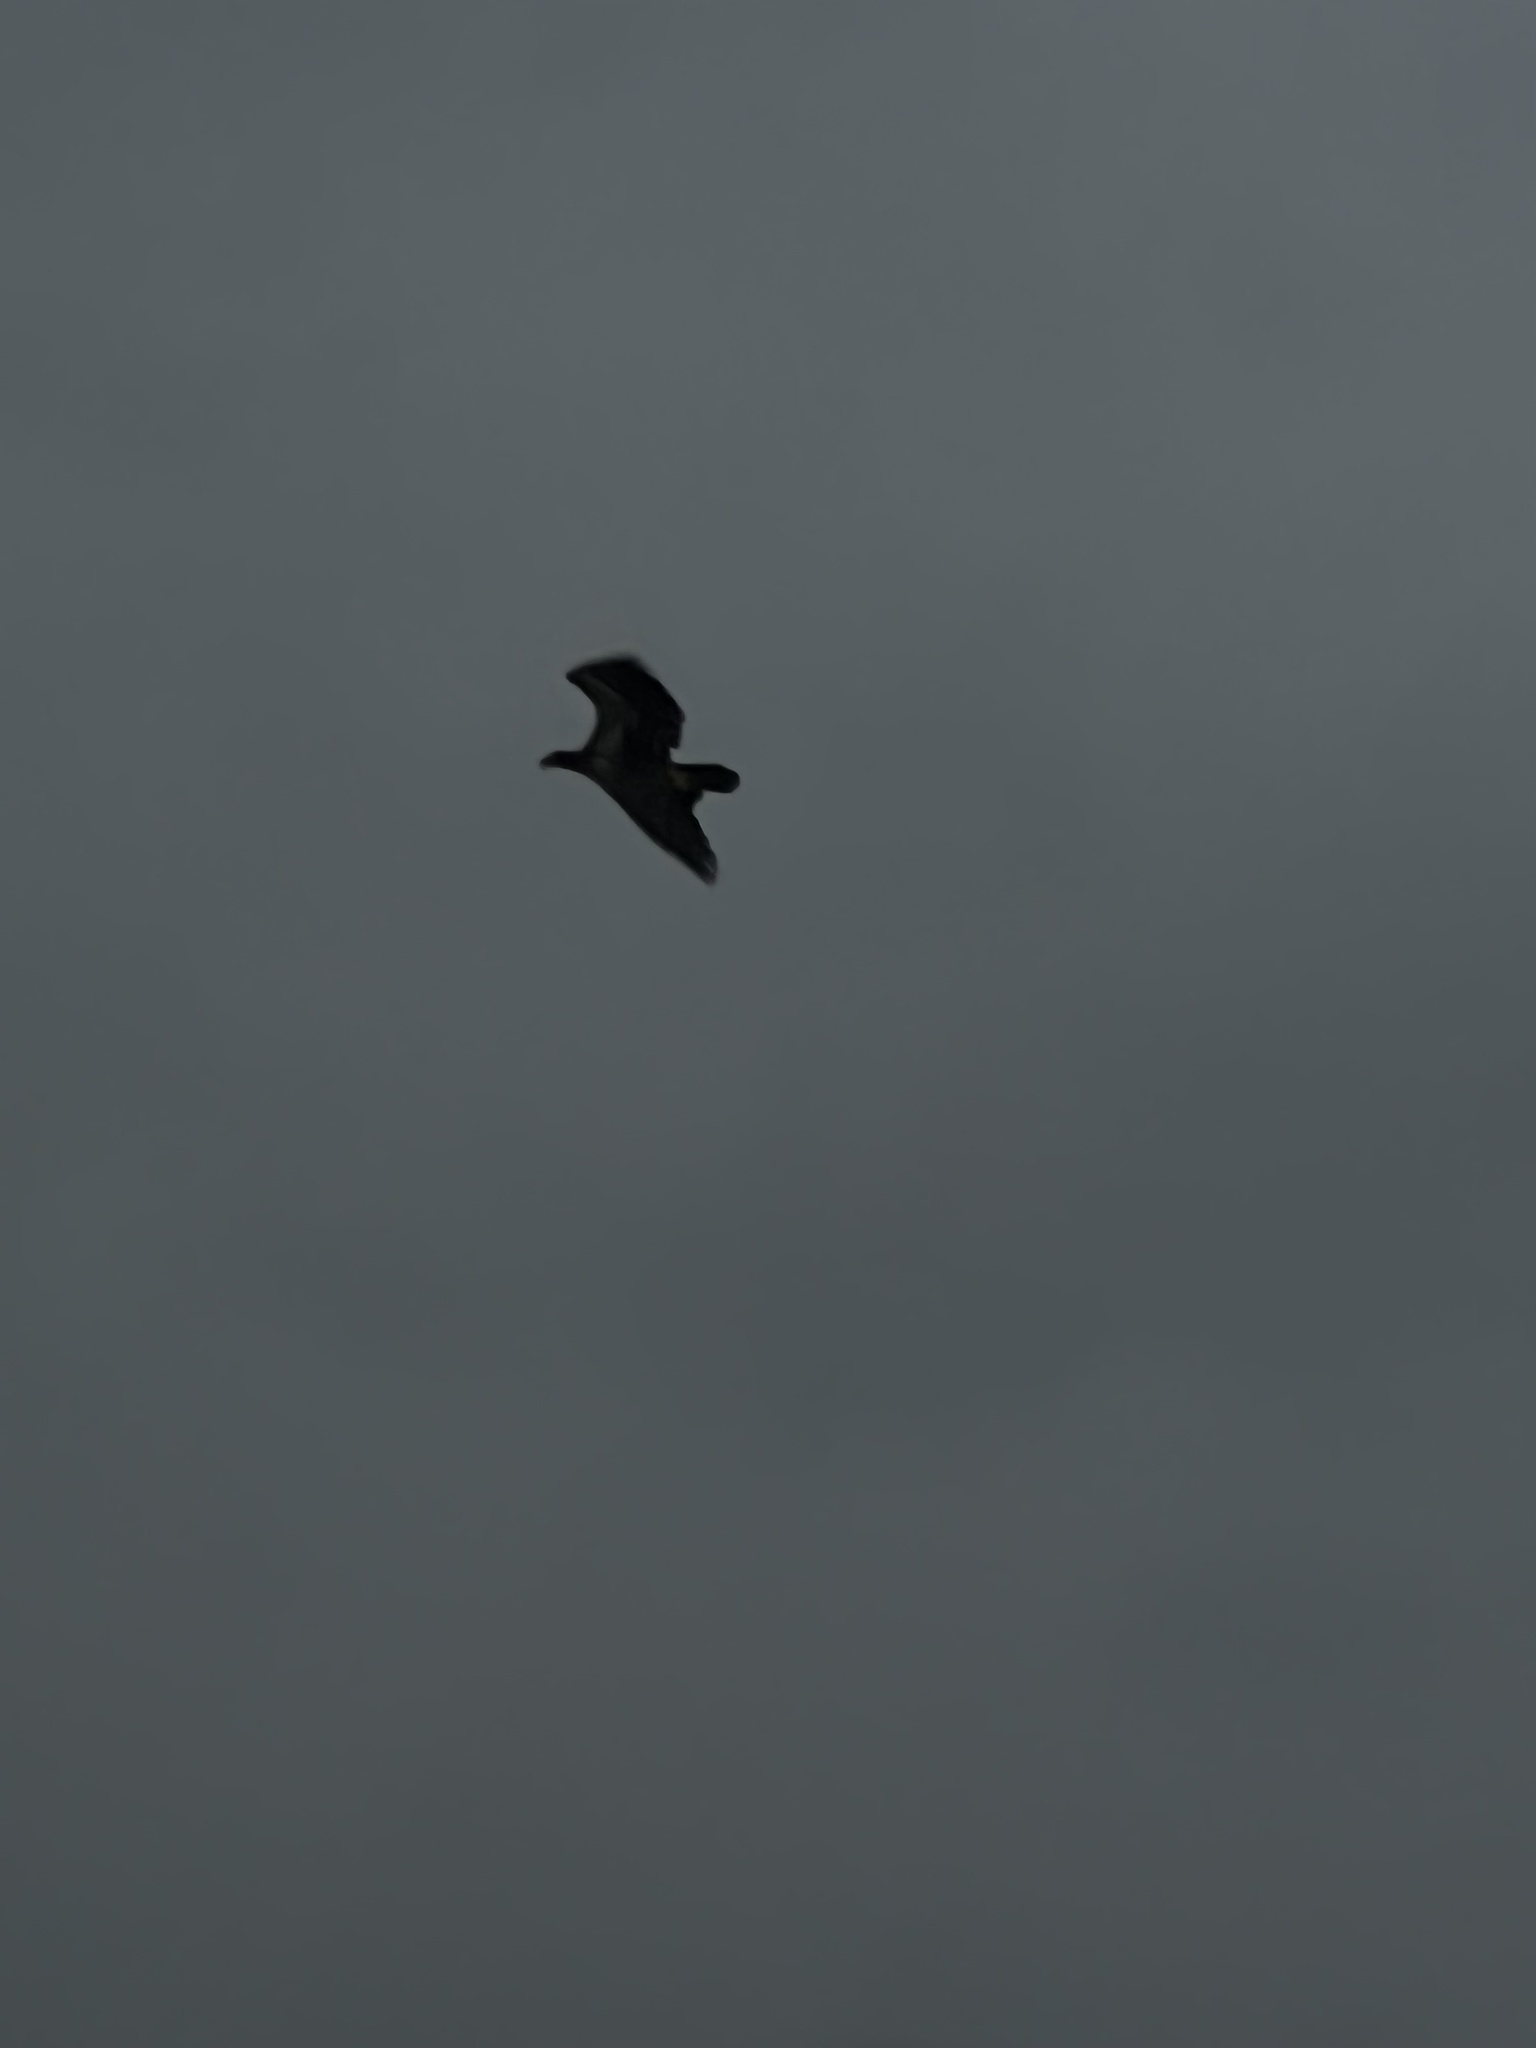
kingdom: Animalia
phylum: Chordata
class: Aves
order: Accipitriformes
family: Accipitridae
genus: Haliaeetus
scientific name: Haliaeetus leucocephalus
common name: Bald eagle
